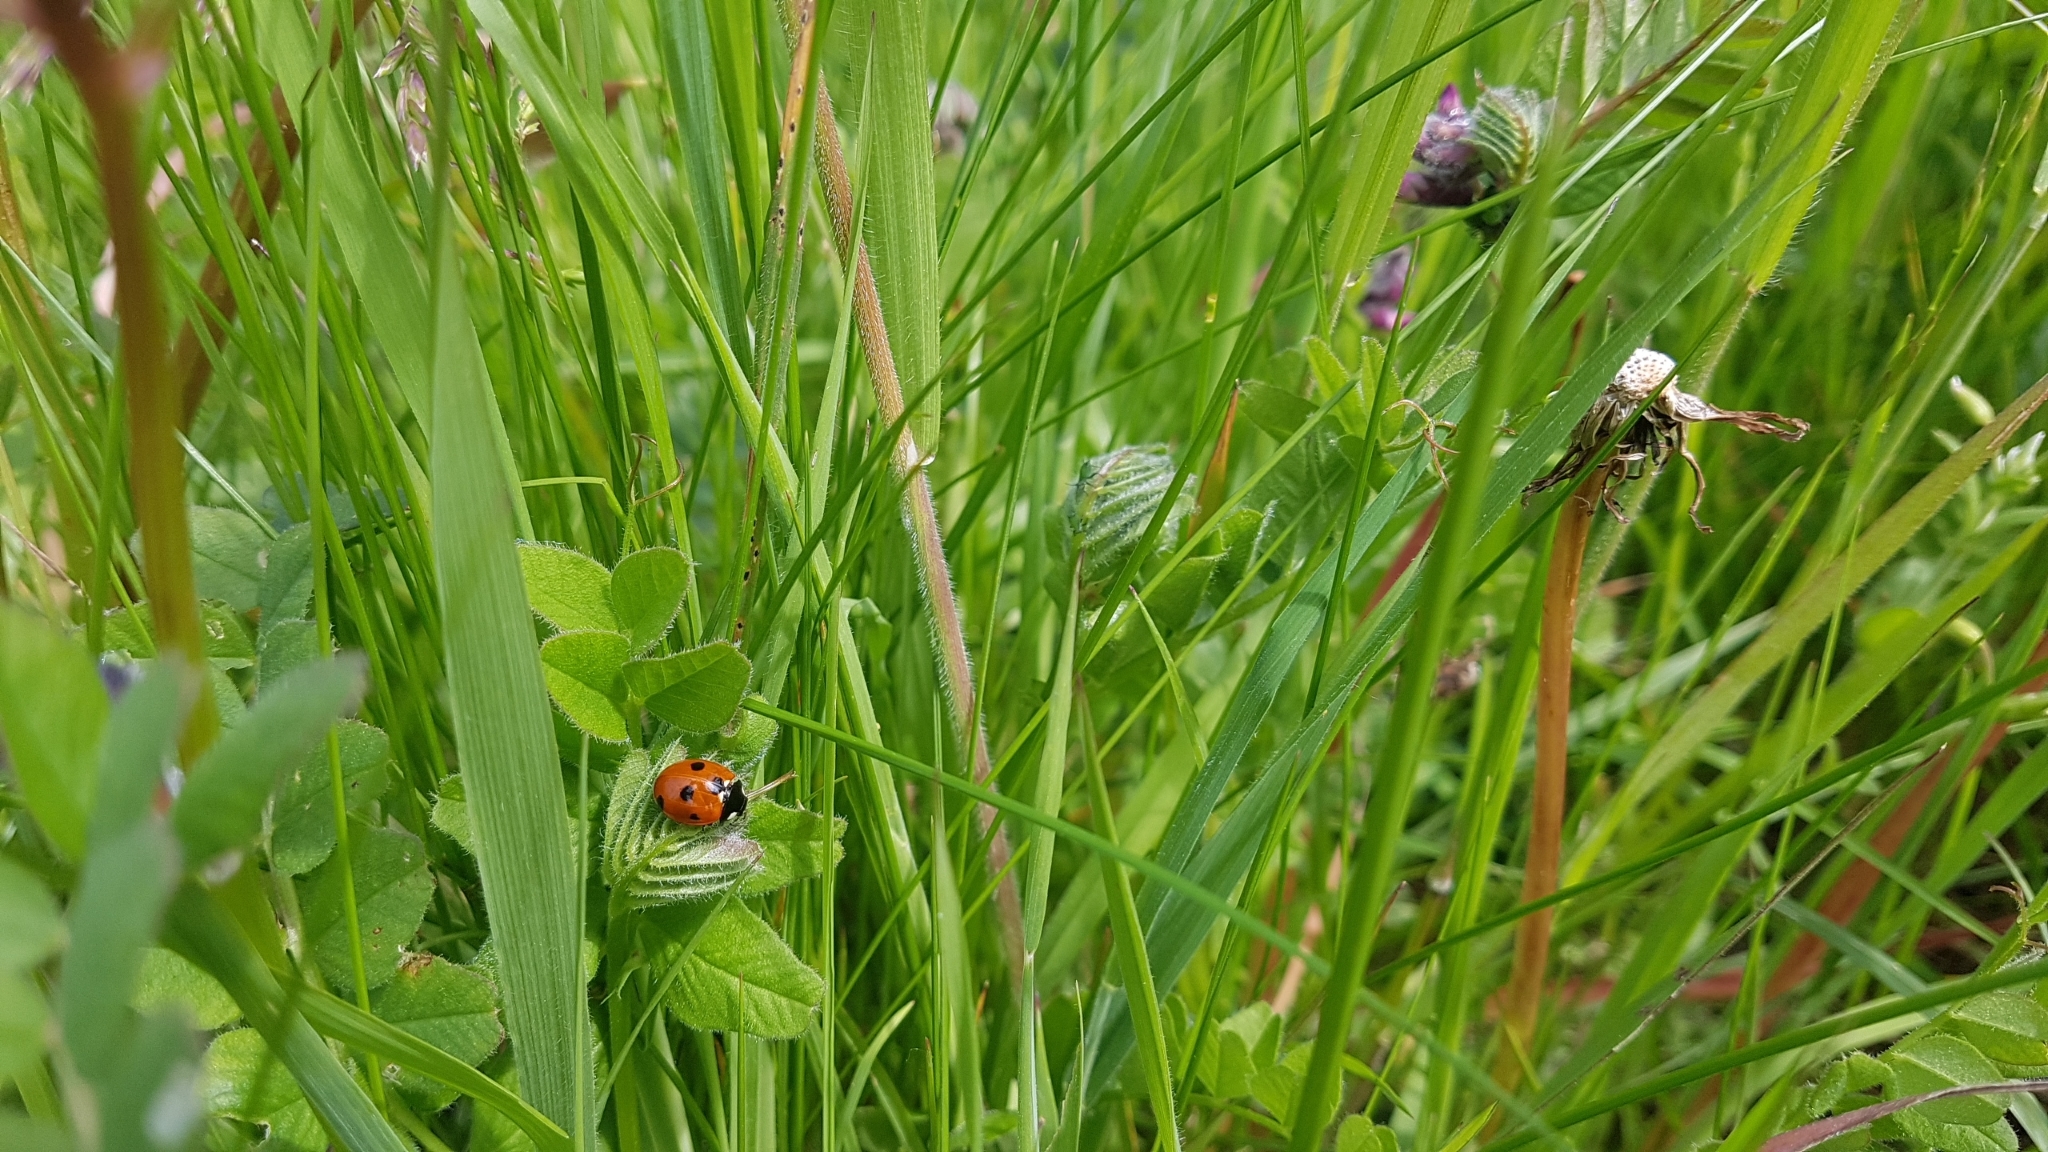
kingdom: Animalia
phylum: Arthropoda
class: Insecta
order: Coleoptera
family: Coccinellidae
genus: Coccinella
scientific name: Coccinella septempunctata
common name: Sevenspotted lady beetle
